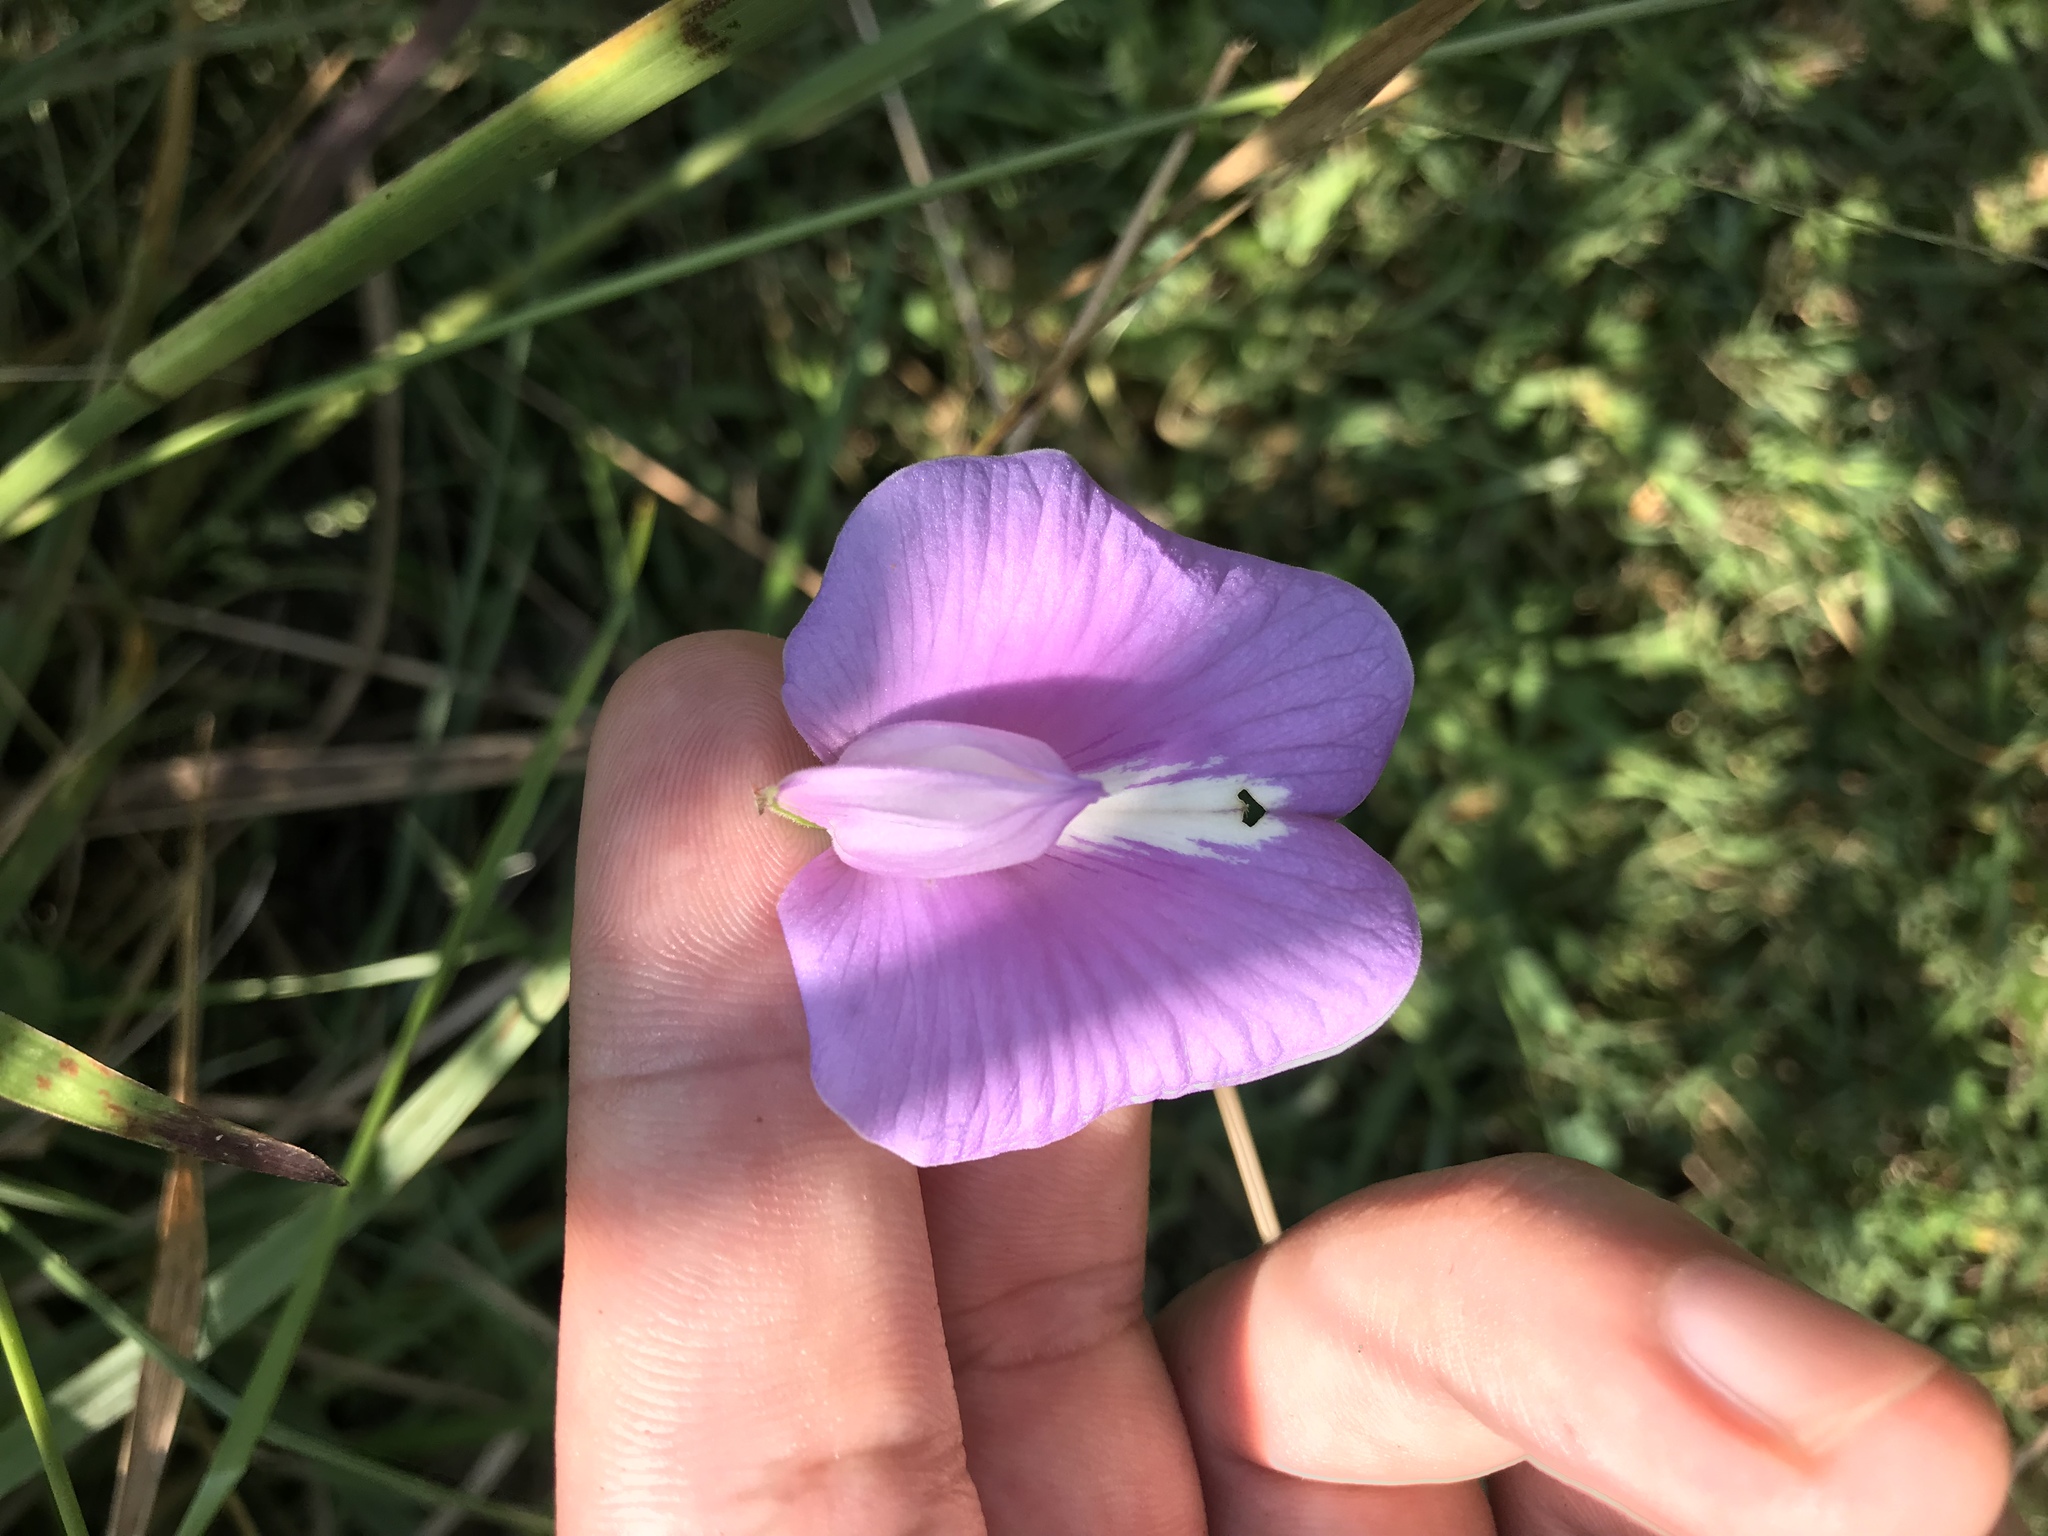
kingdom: Plantae
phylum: Tracheophyta
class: Magnoliopsida
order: Fabales
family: Fabaceae
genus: Centrosema
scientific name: Centrosema virginianum
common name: Butterfly-pea
